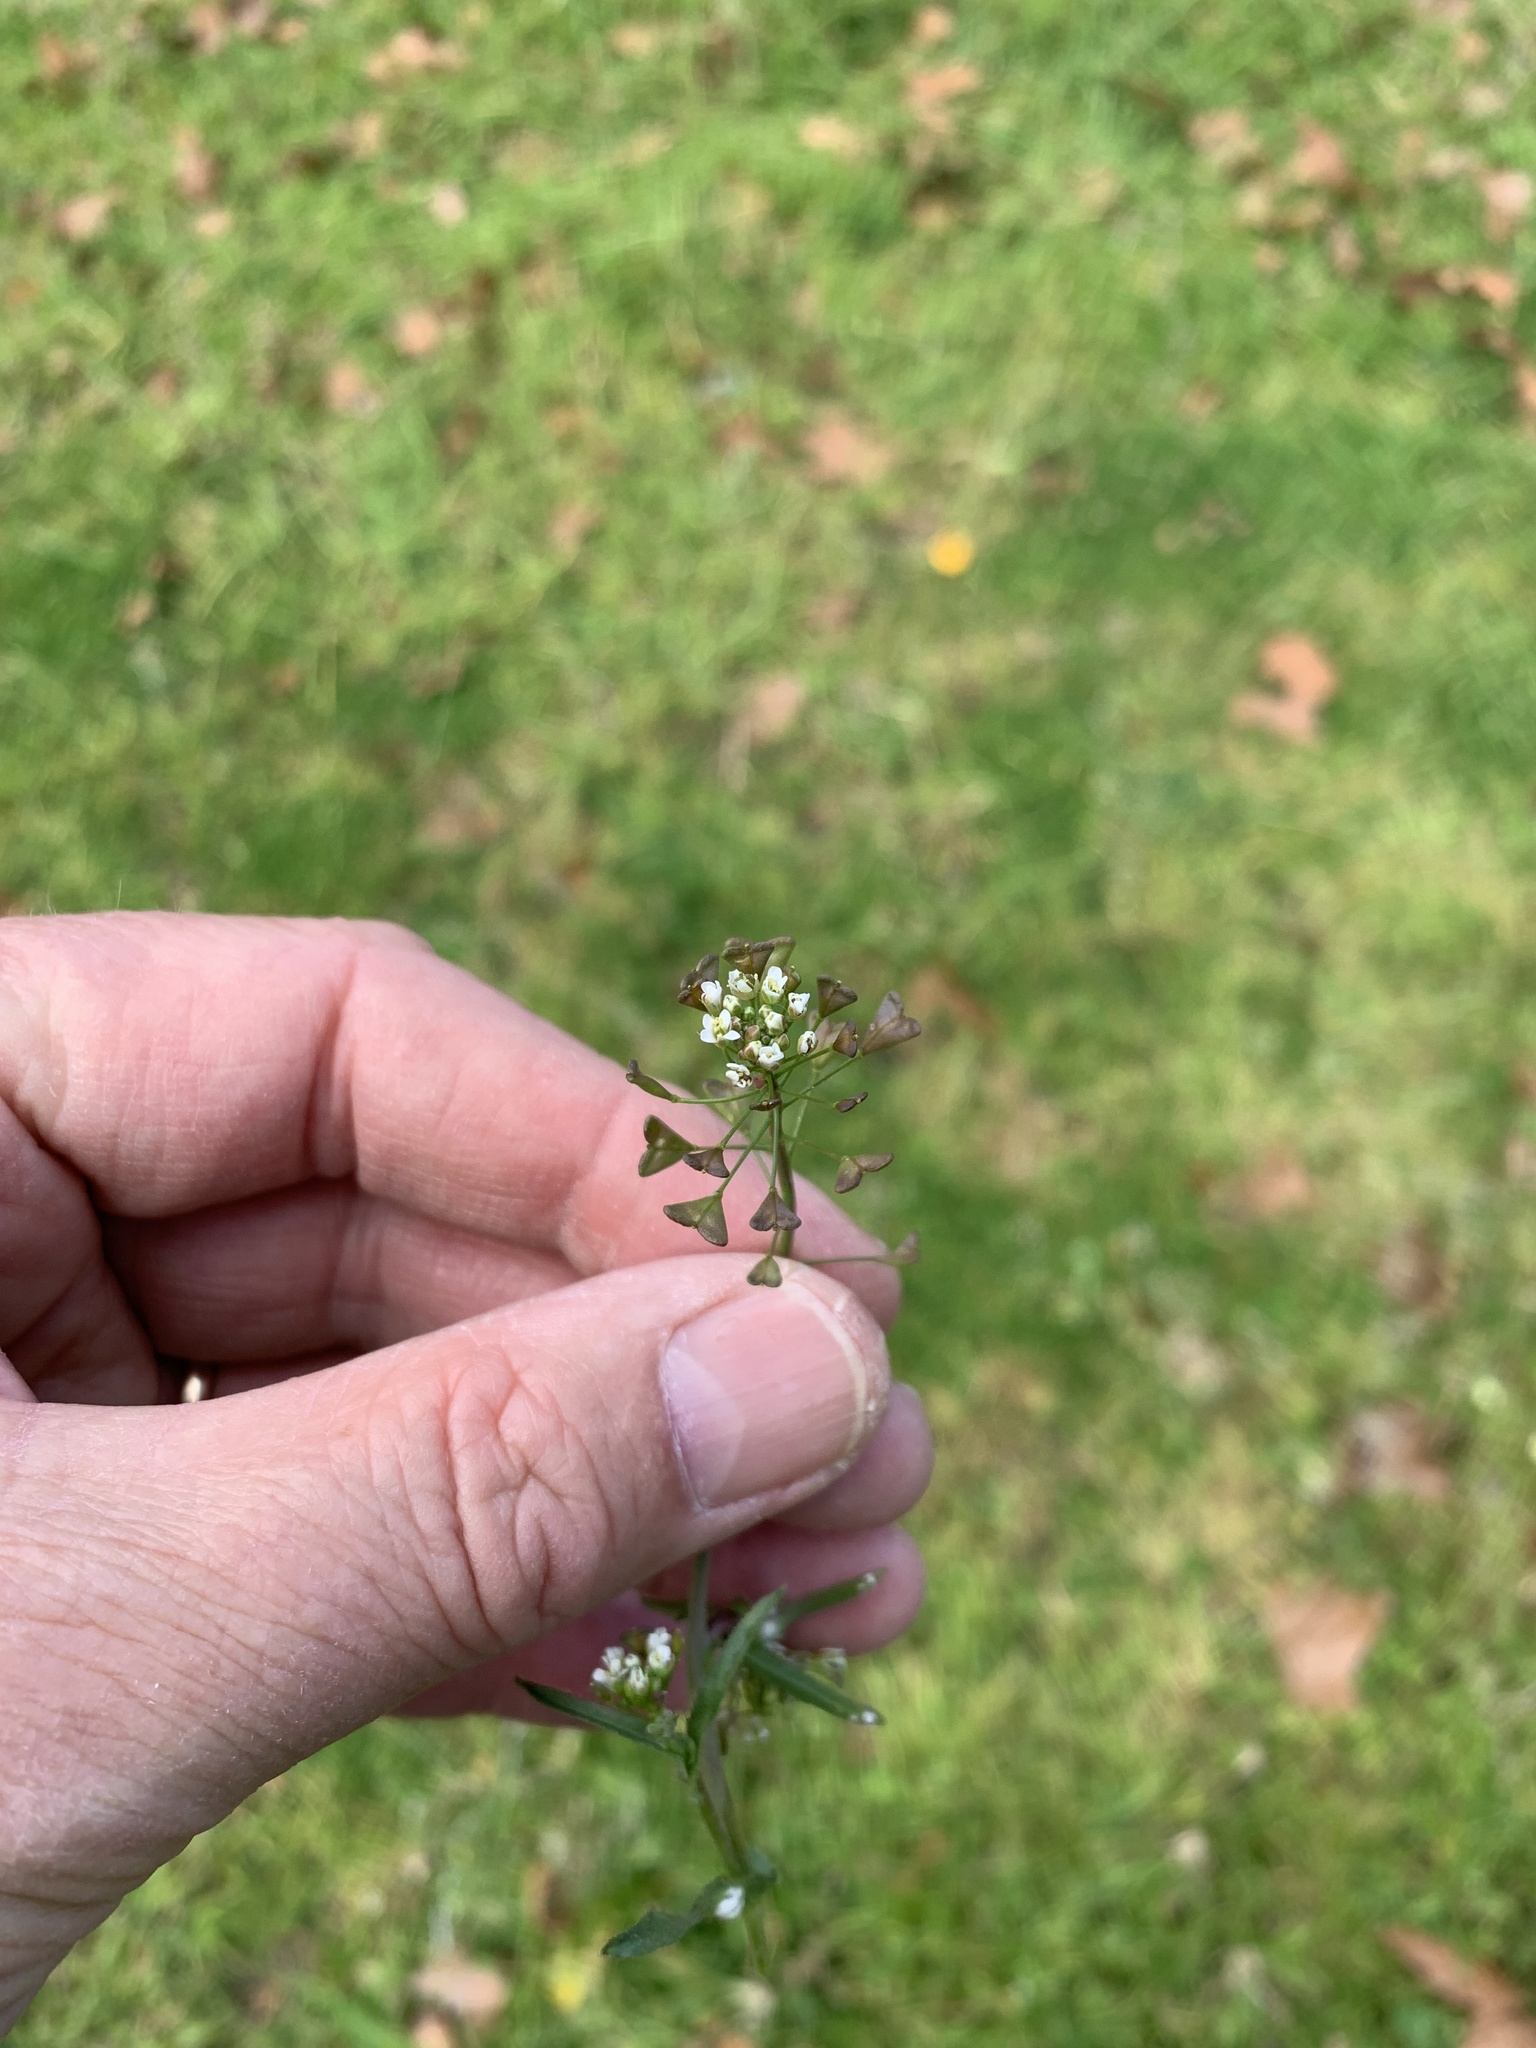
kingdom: Plantae
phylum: Tracheophyta
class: Magnoliopsida
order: Brassicales
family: Brassicaceae
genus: Capsella
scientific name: Capsella bursa-pastoris
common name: Shepherd's purse
